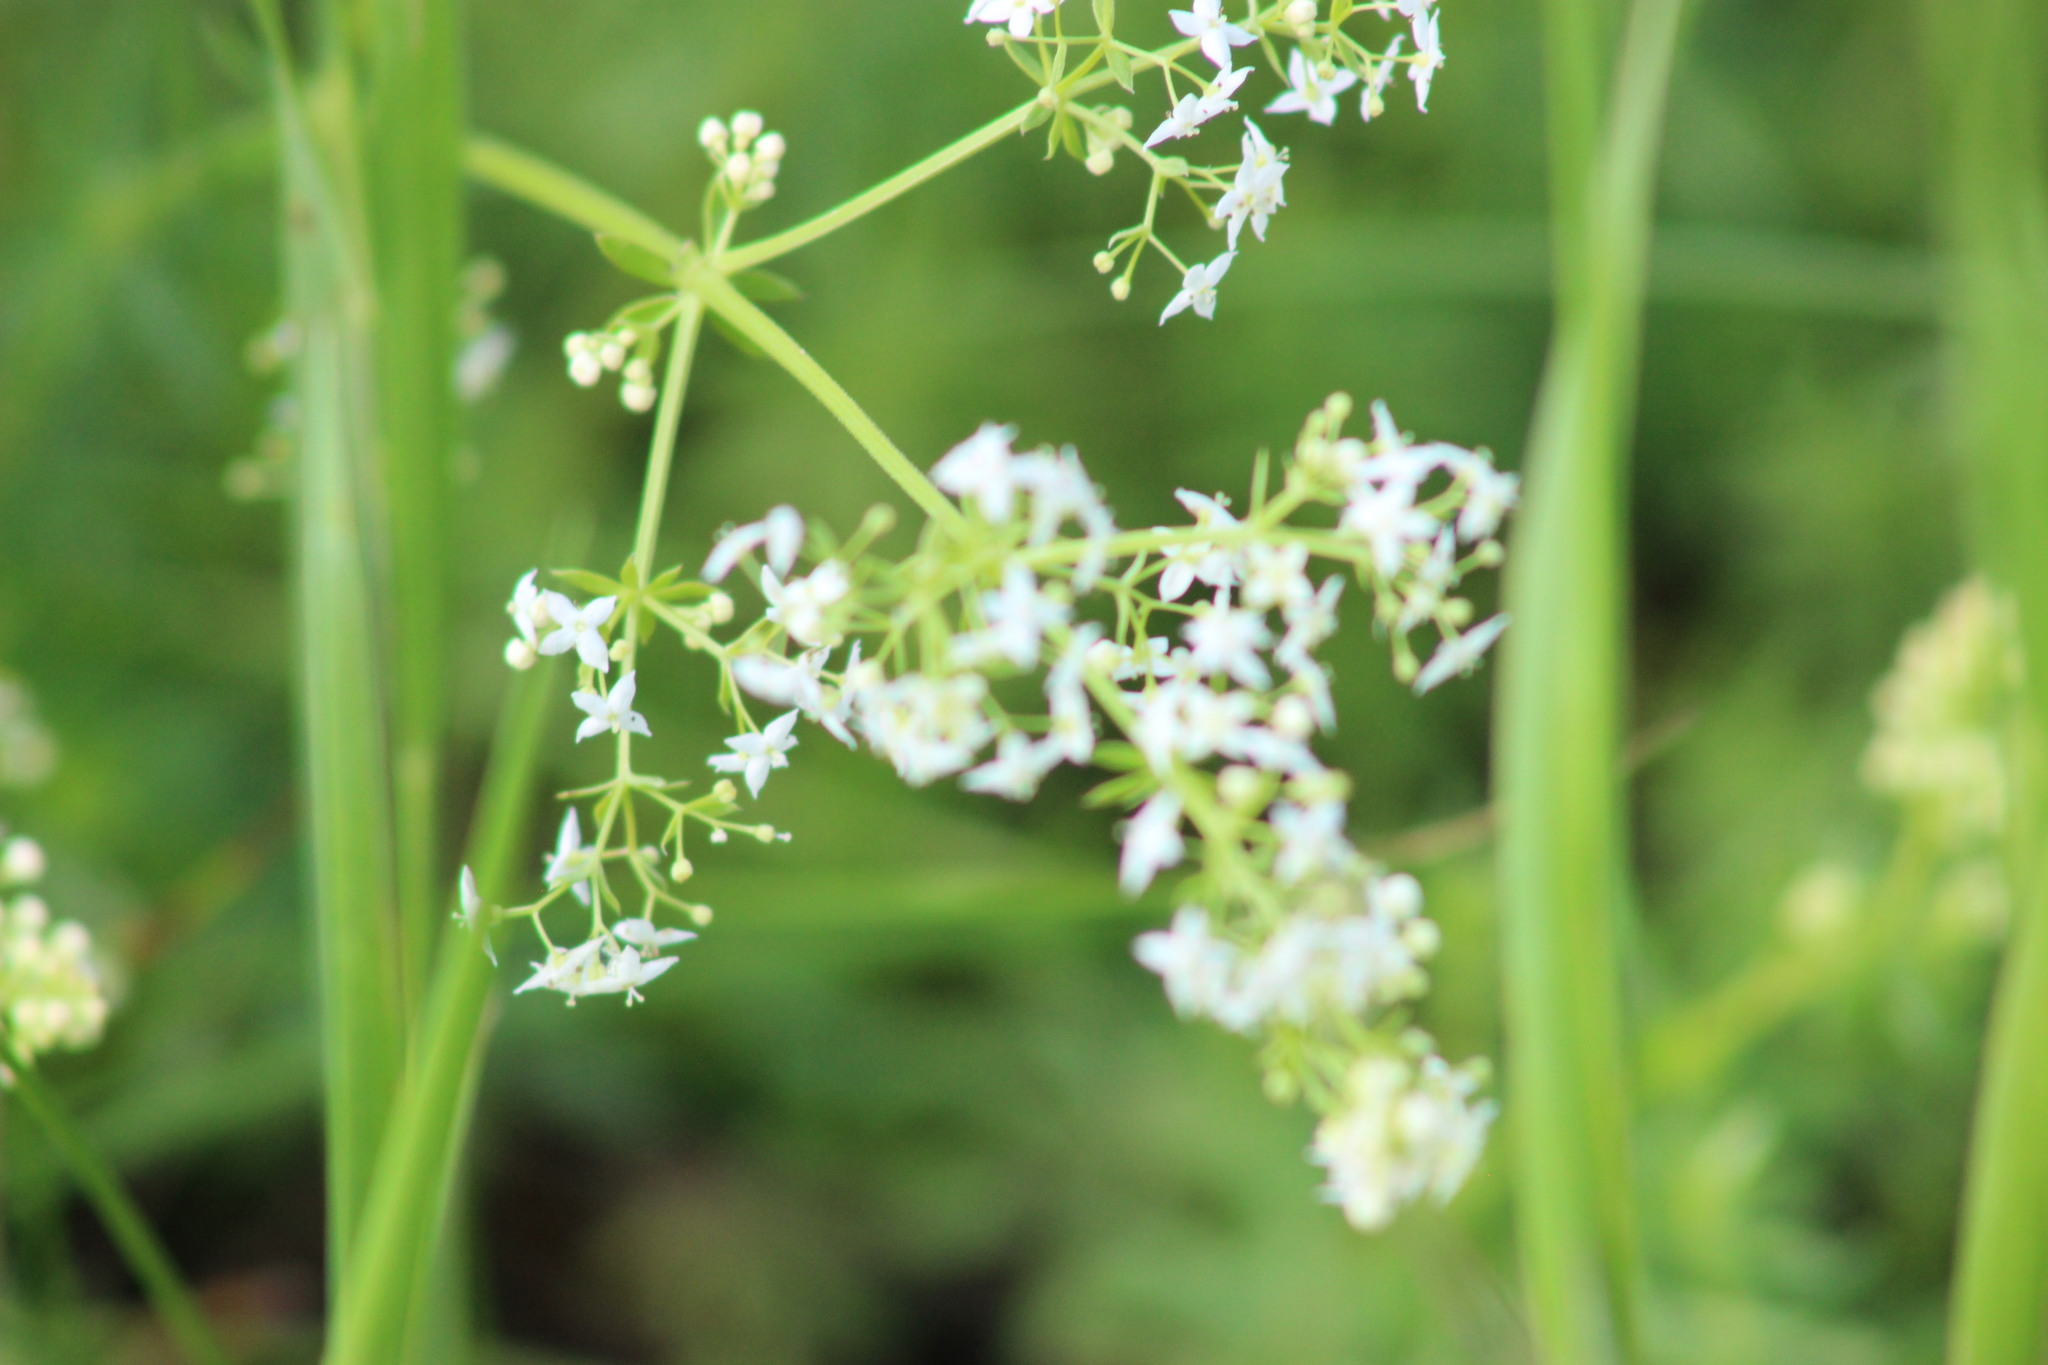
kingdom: Plantae
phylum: Tracheophyta
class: Magnoliopsida
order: Gentianales
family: Rubiaceae
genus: Galium
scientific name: Galium mollugo
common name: Hedge bedstraw
